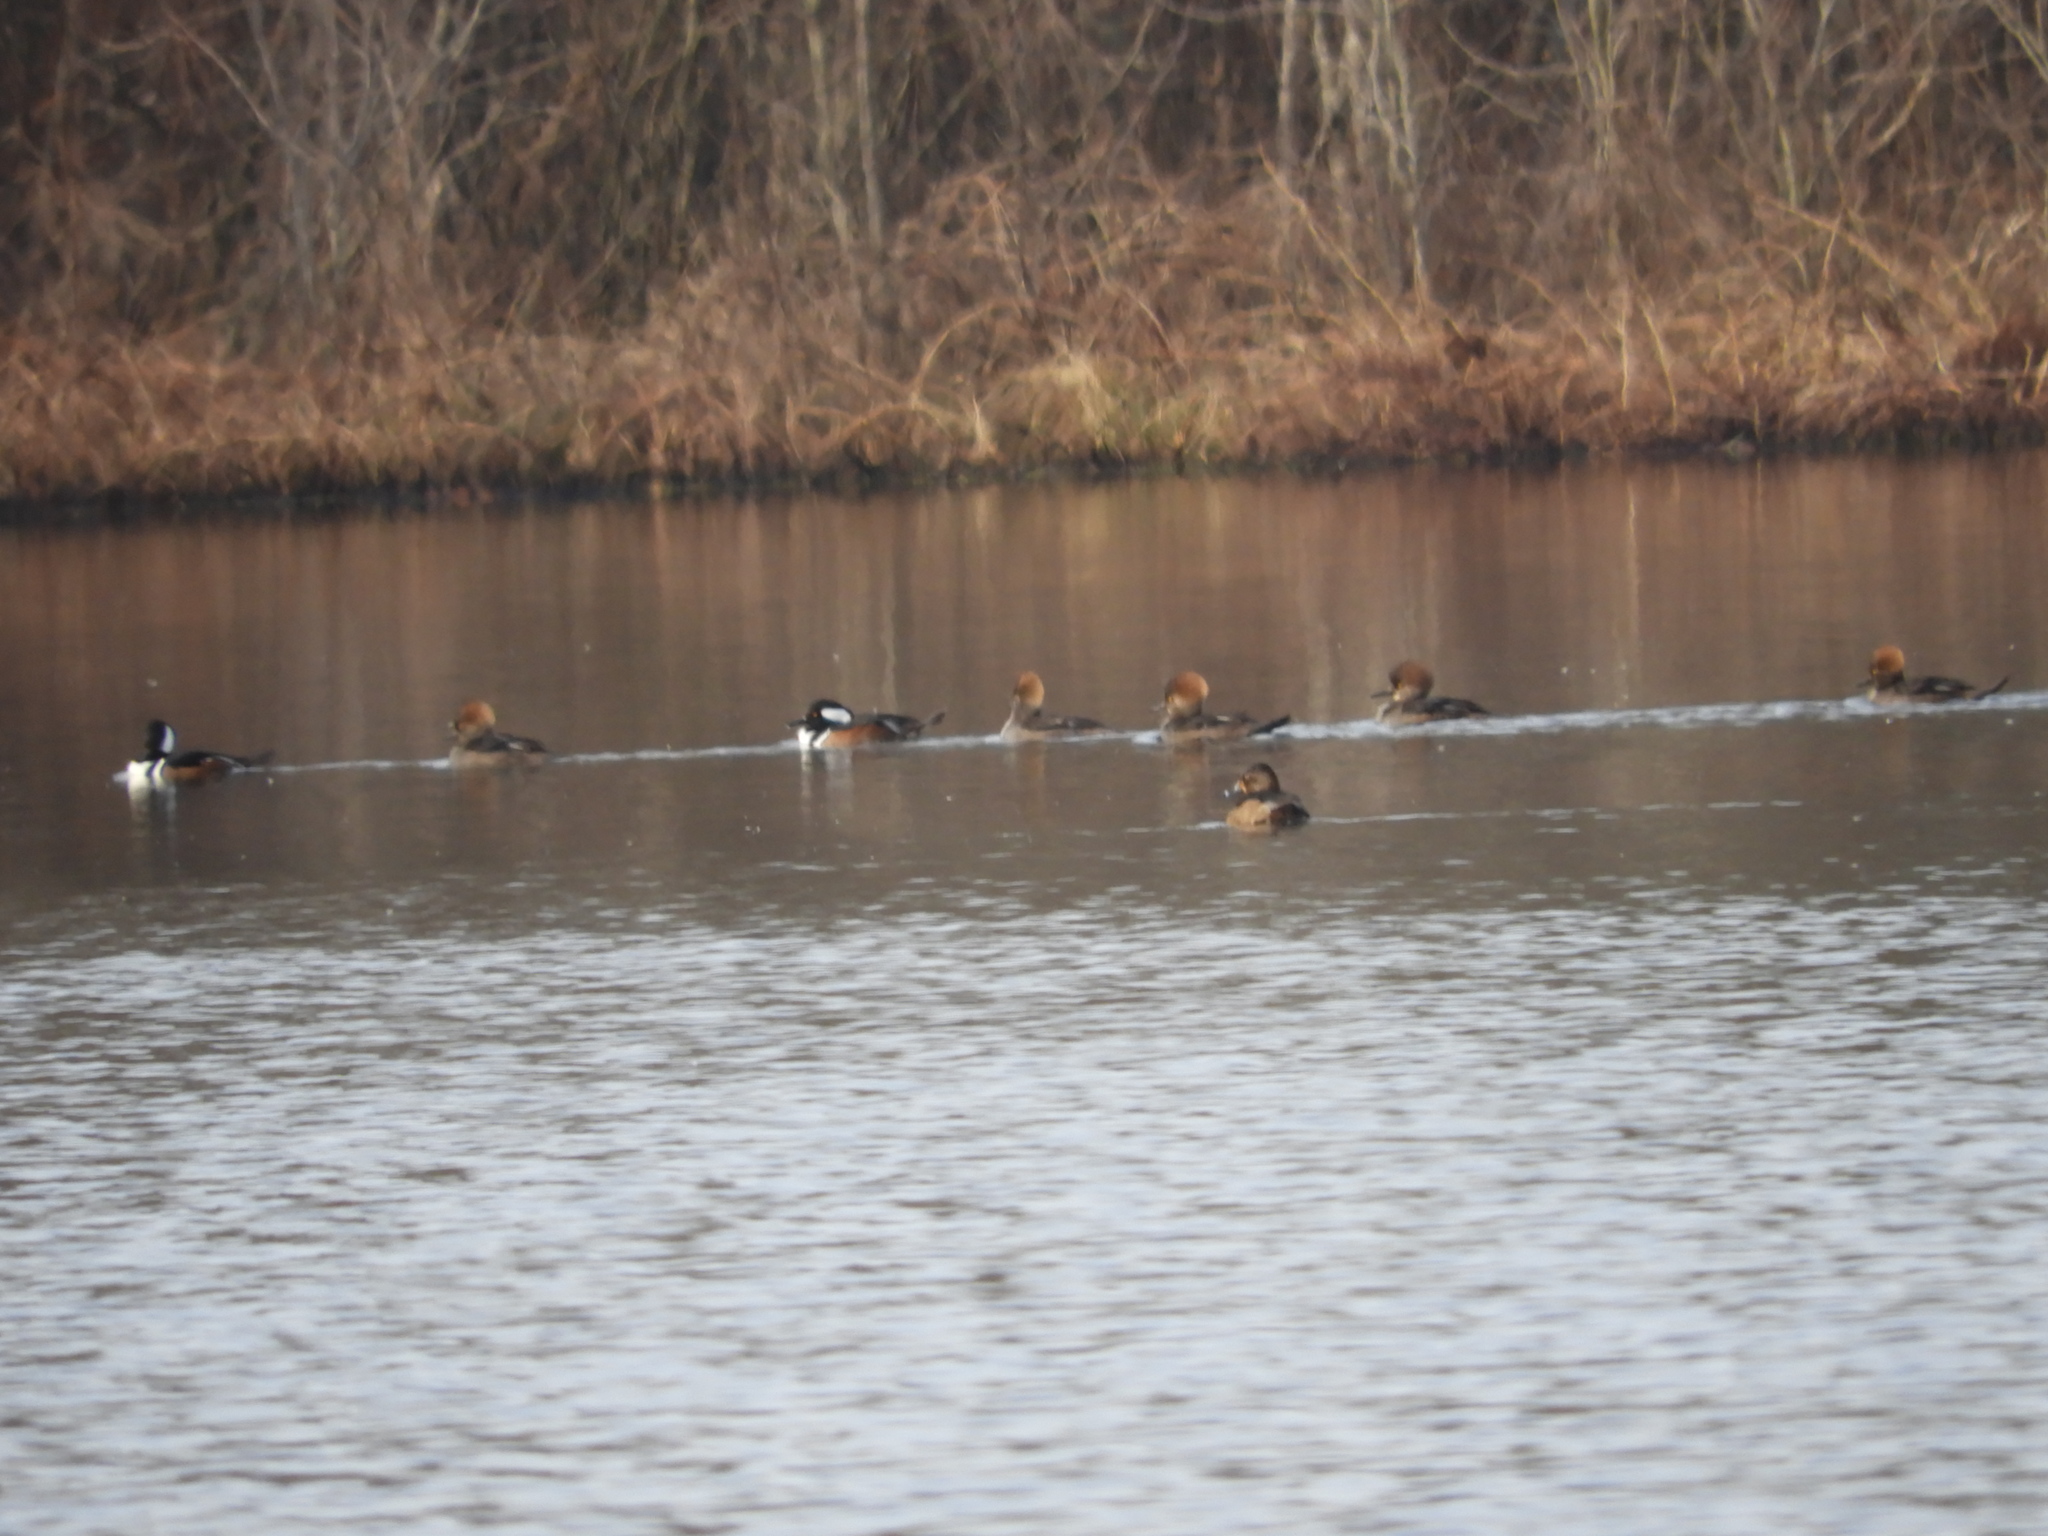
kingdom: Animalia
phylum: Chordata
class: Aves
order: Anseriformes
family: Anatidae
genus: Lophodytes
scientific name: Lophodytes cucullatus
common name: Hooded merganser
